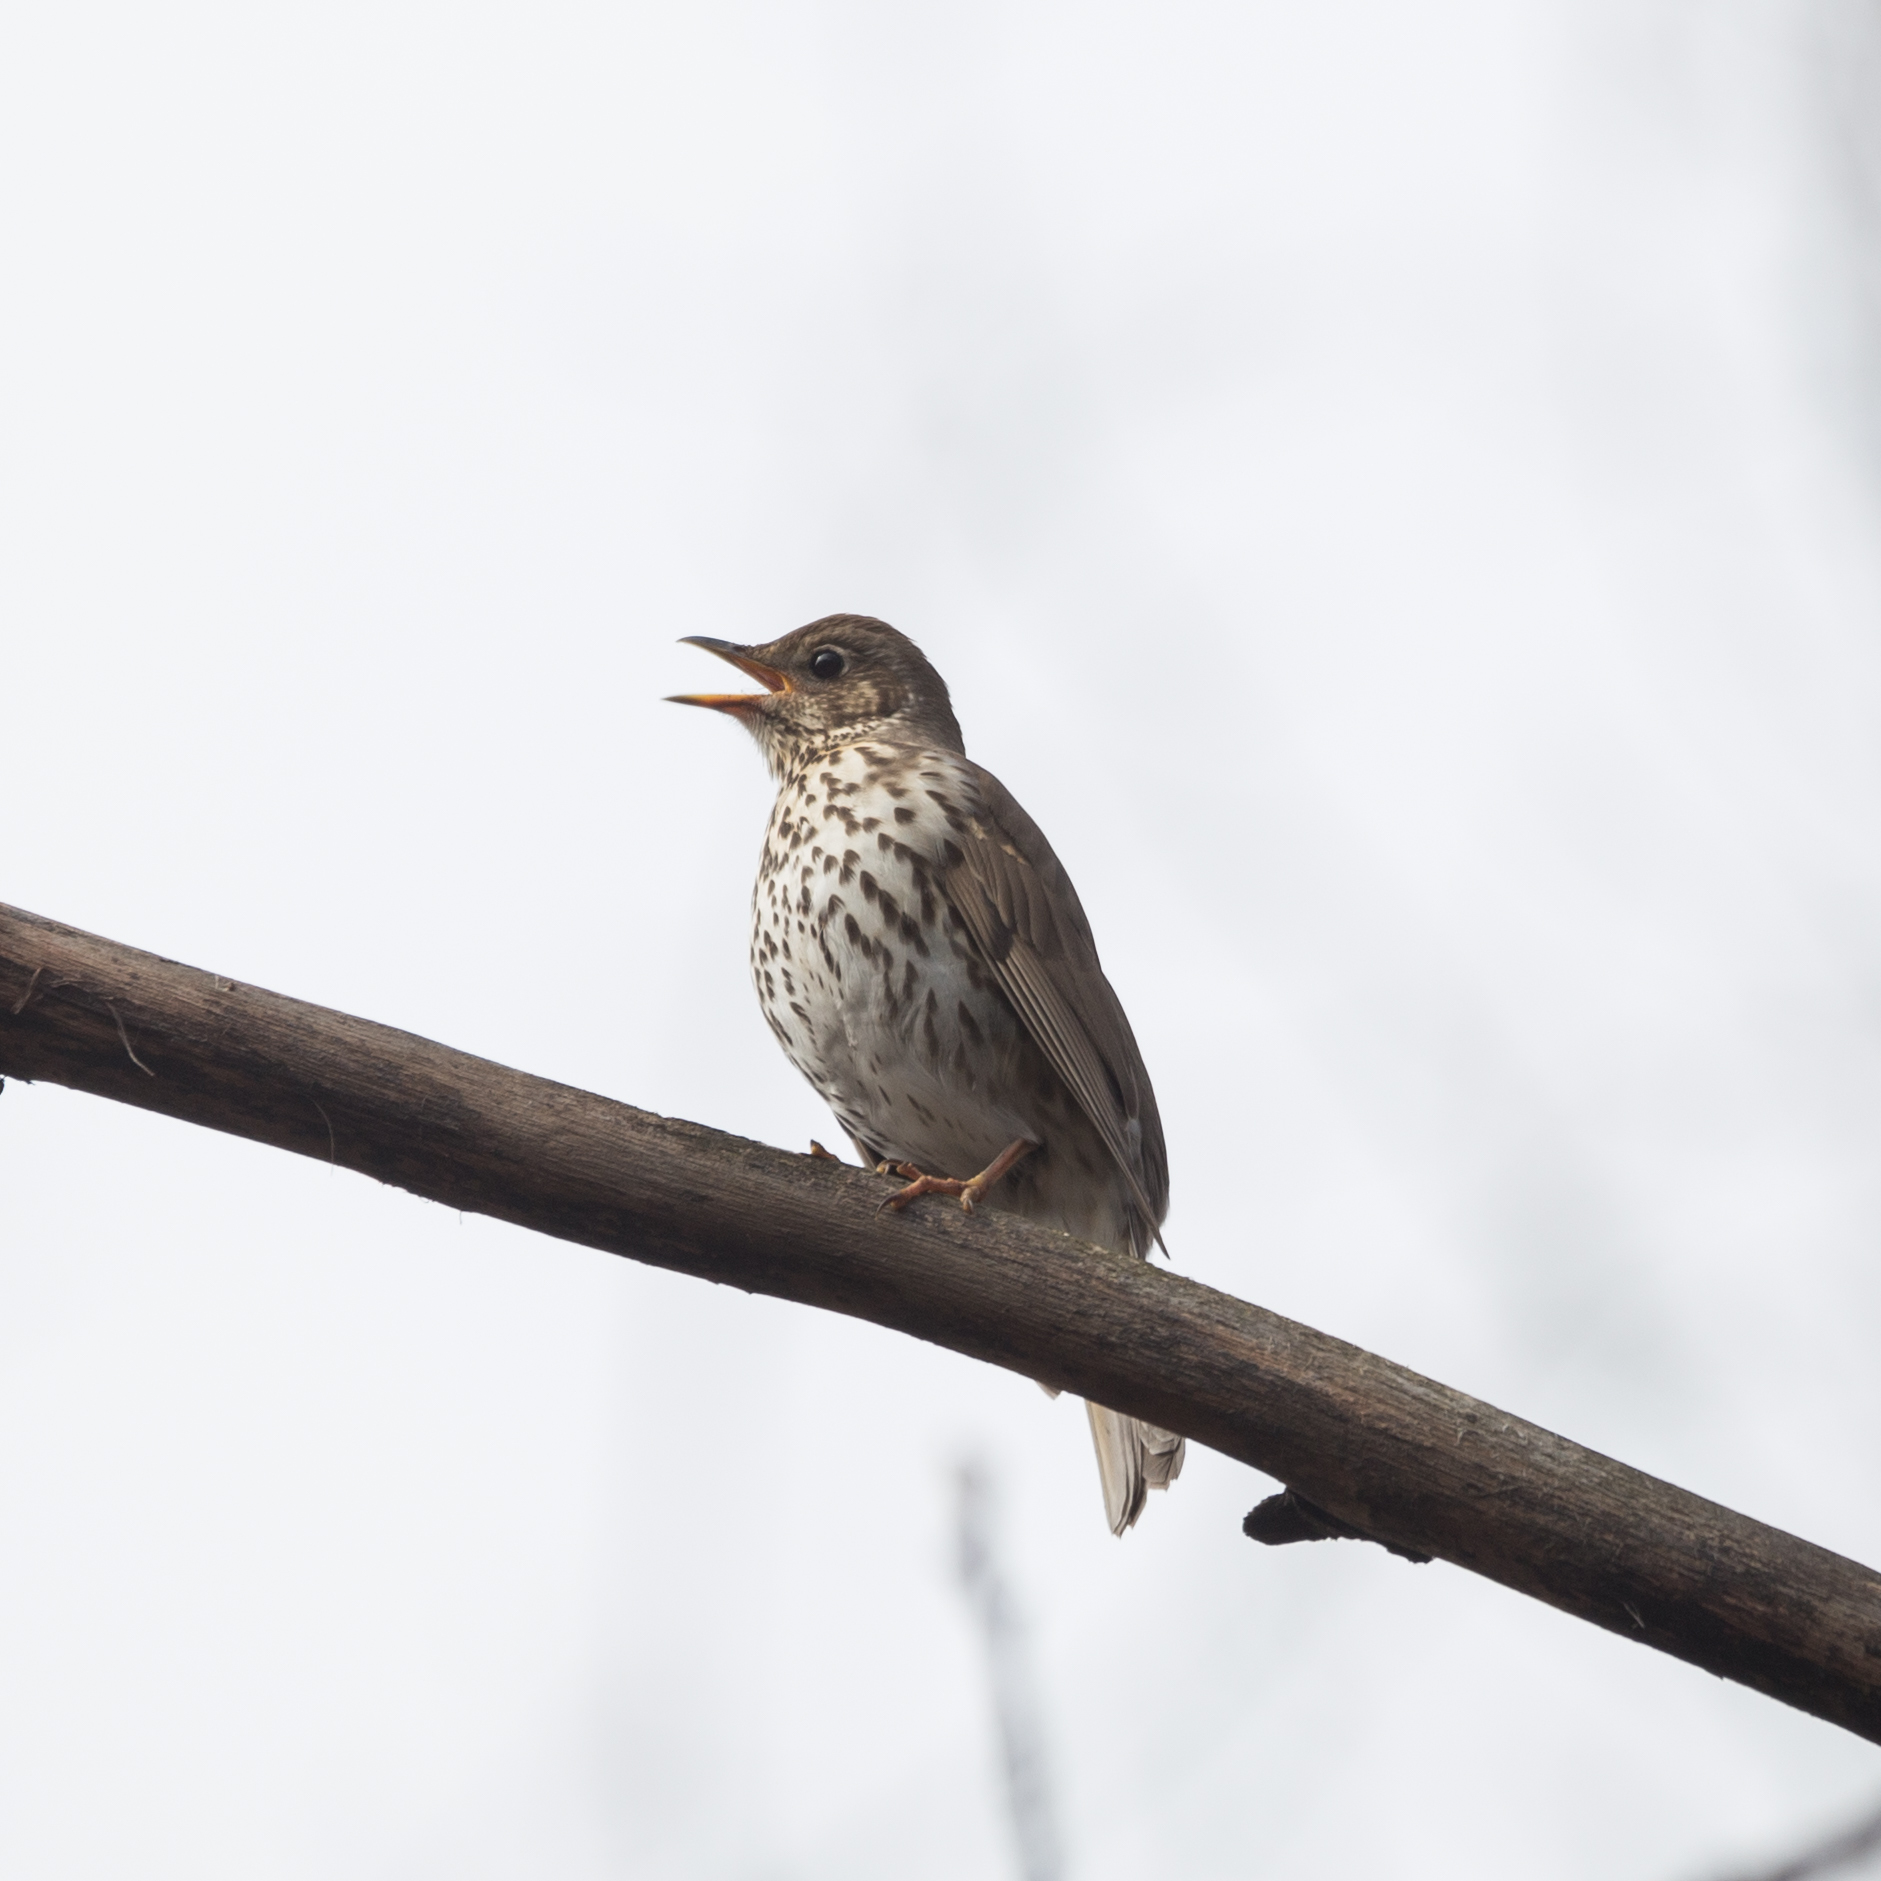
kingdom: Animalia
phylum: Chordata
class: Aves
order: Passeriformes
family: Turdidae
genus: Turdus
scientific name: Turdus philomelos
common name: Song thrush
